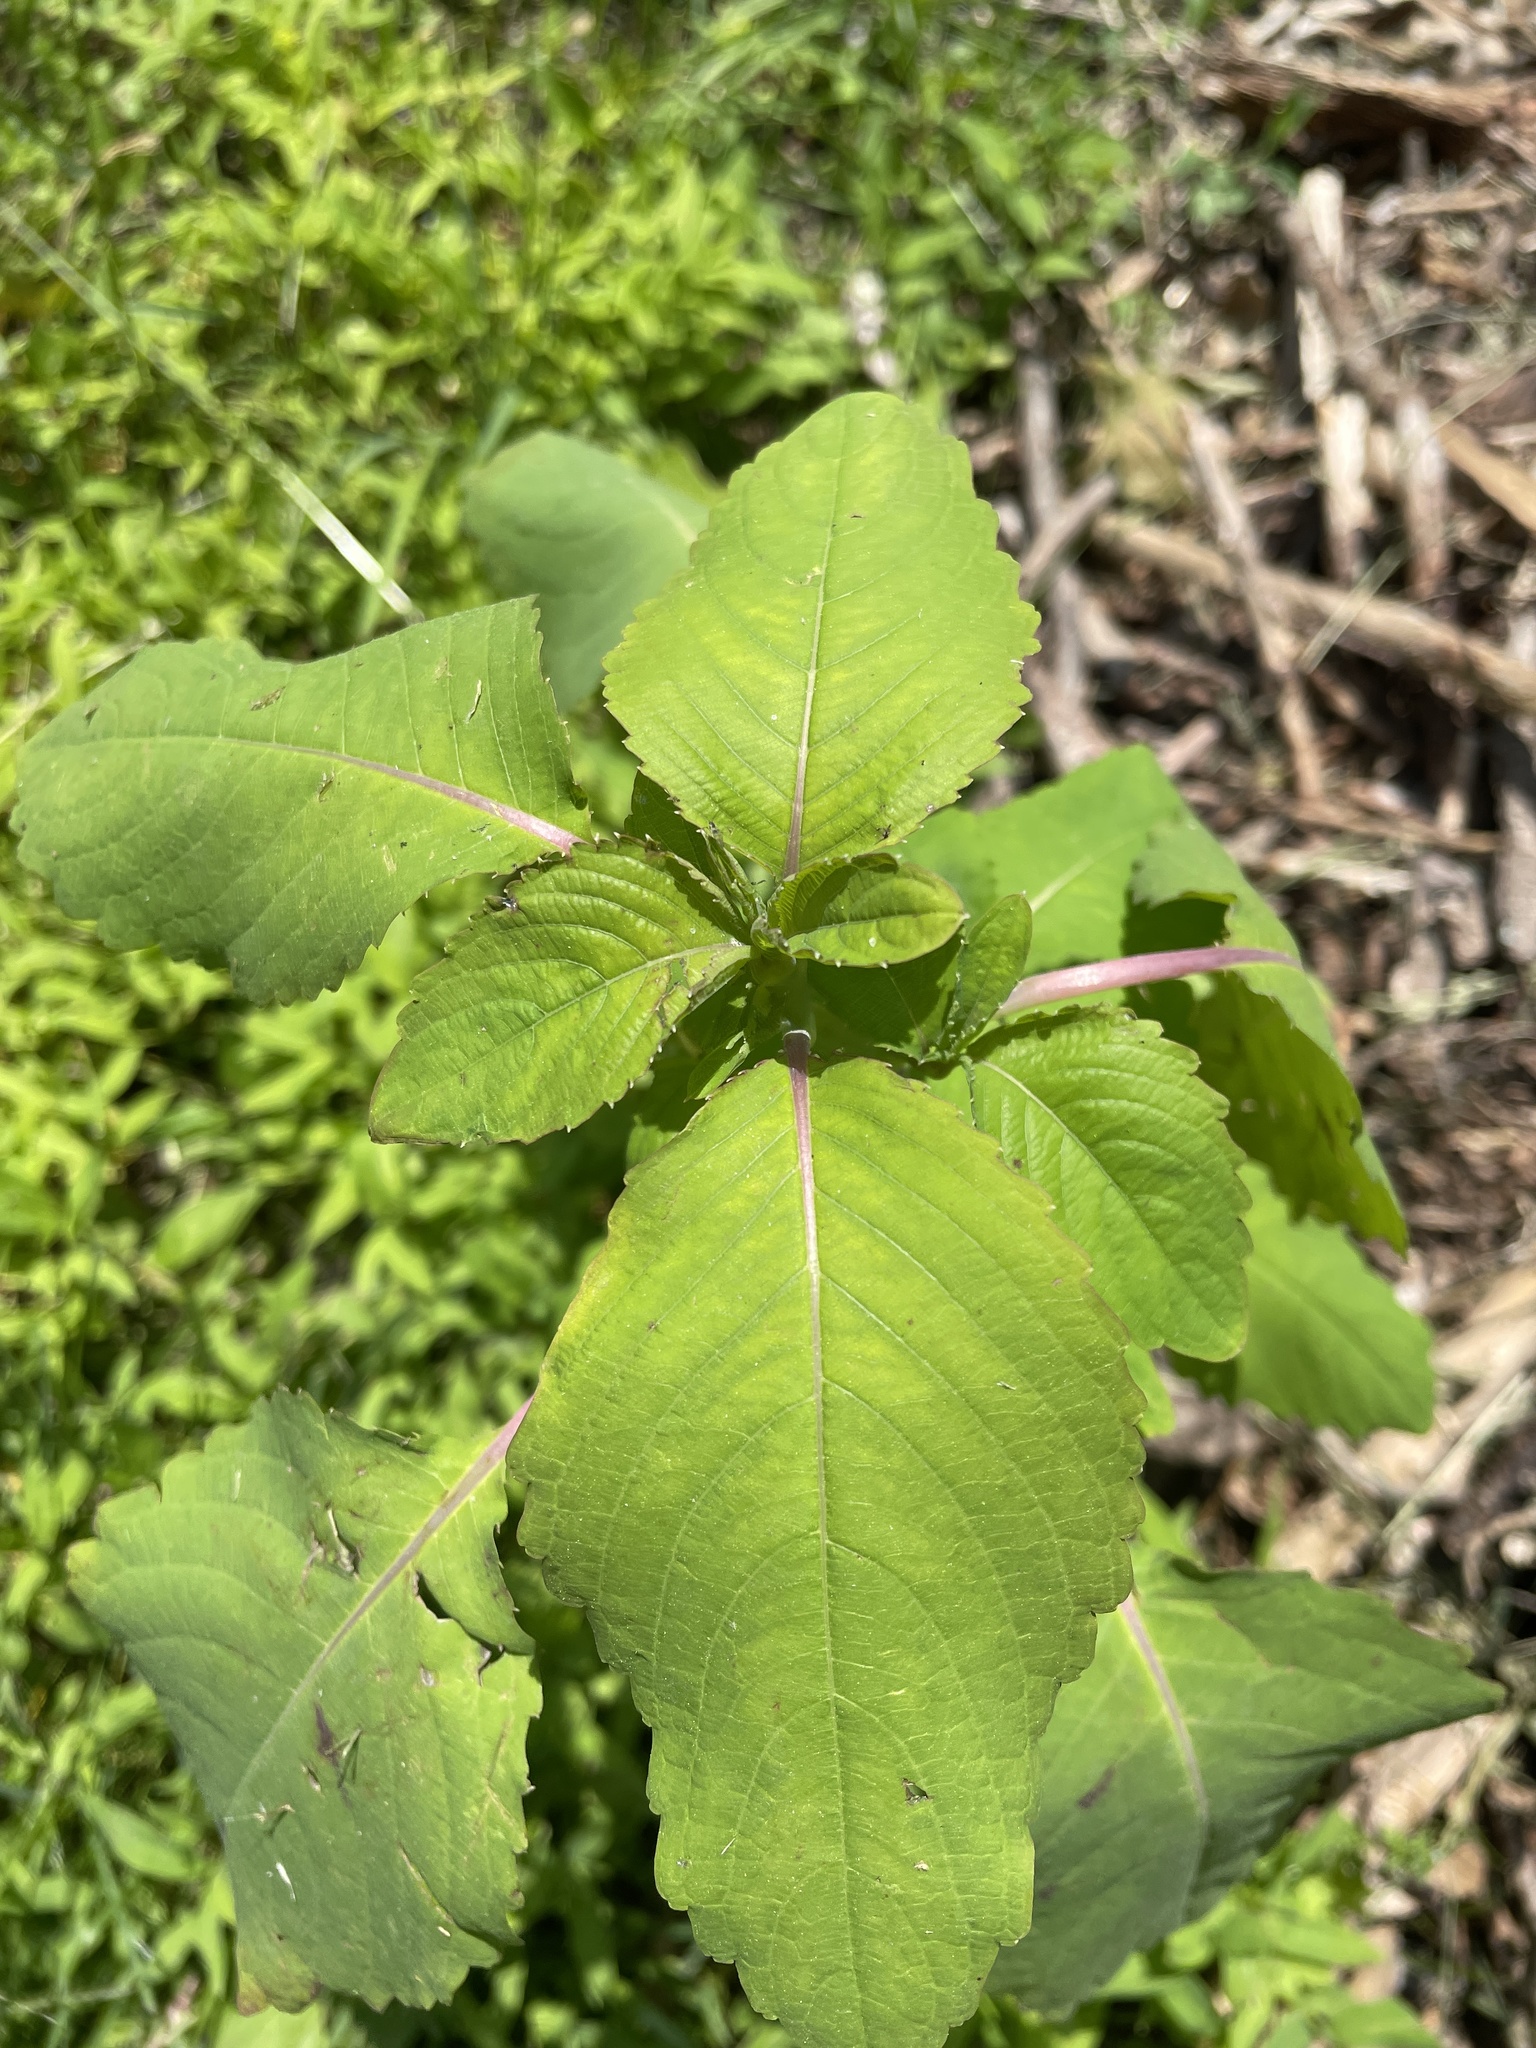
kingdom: Plantae
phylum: Tracheophyta
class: Magnoliopsida
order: Ericales
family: Balsaminaceae
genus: Impatiens
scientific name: Impatiens
